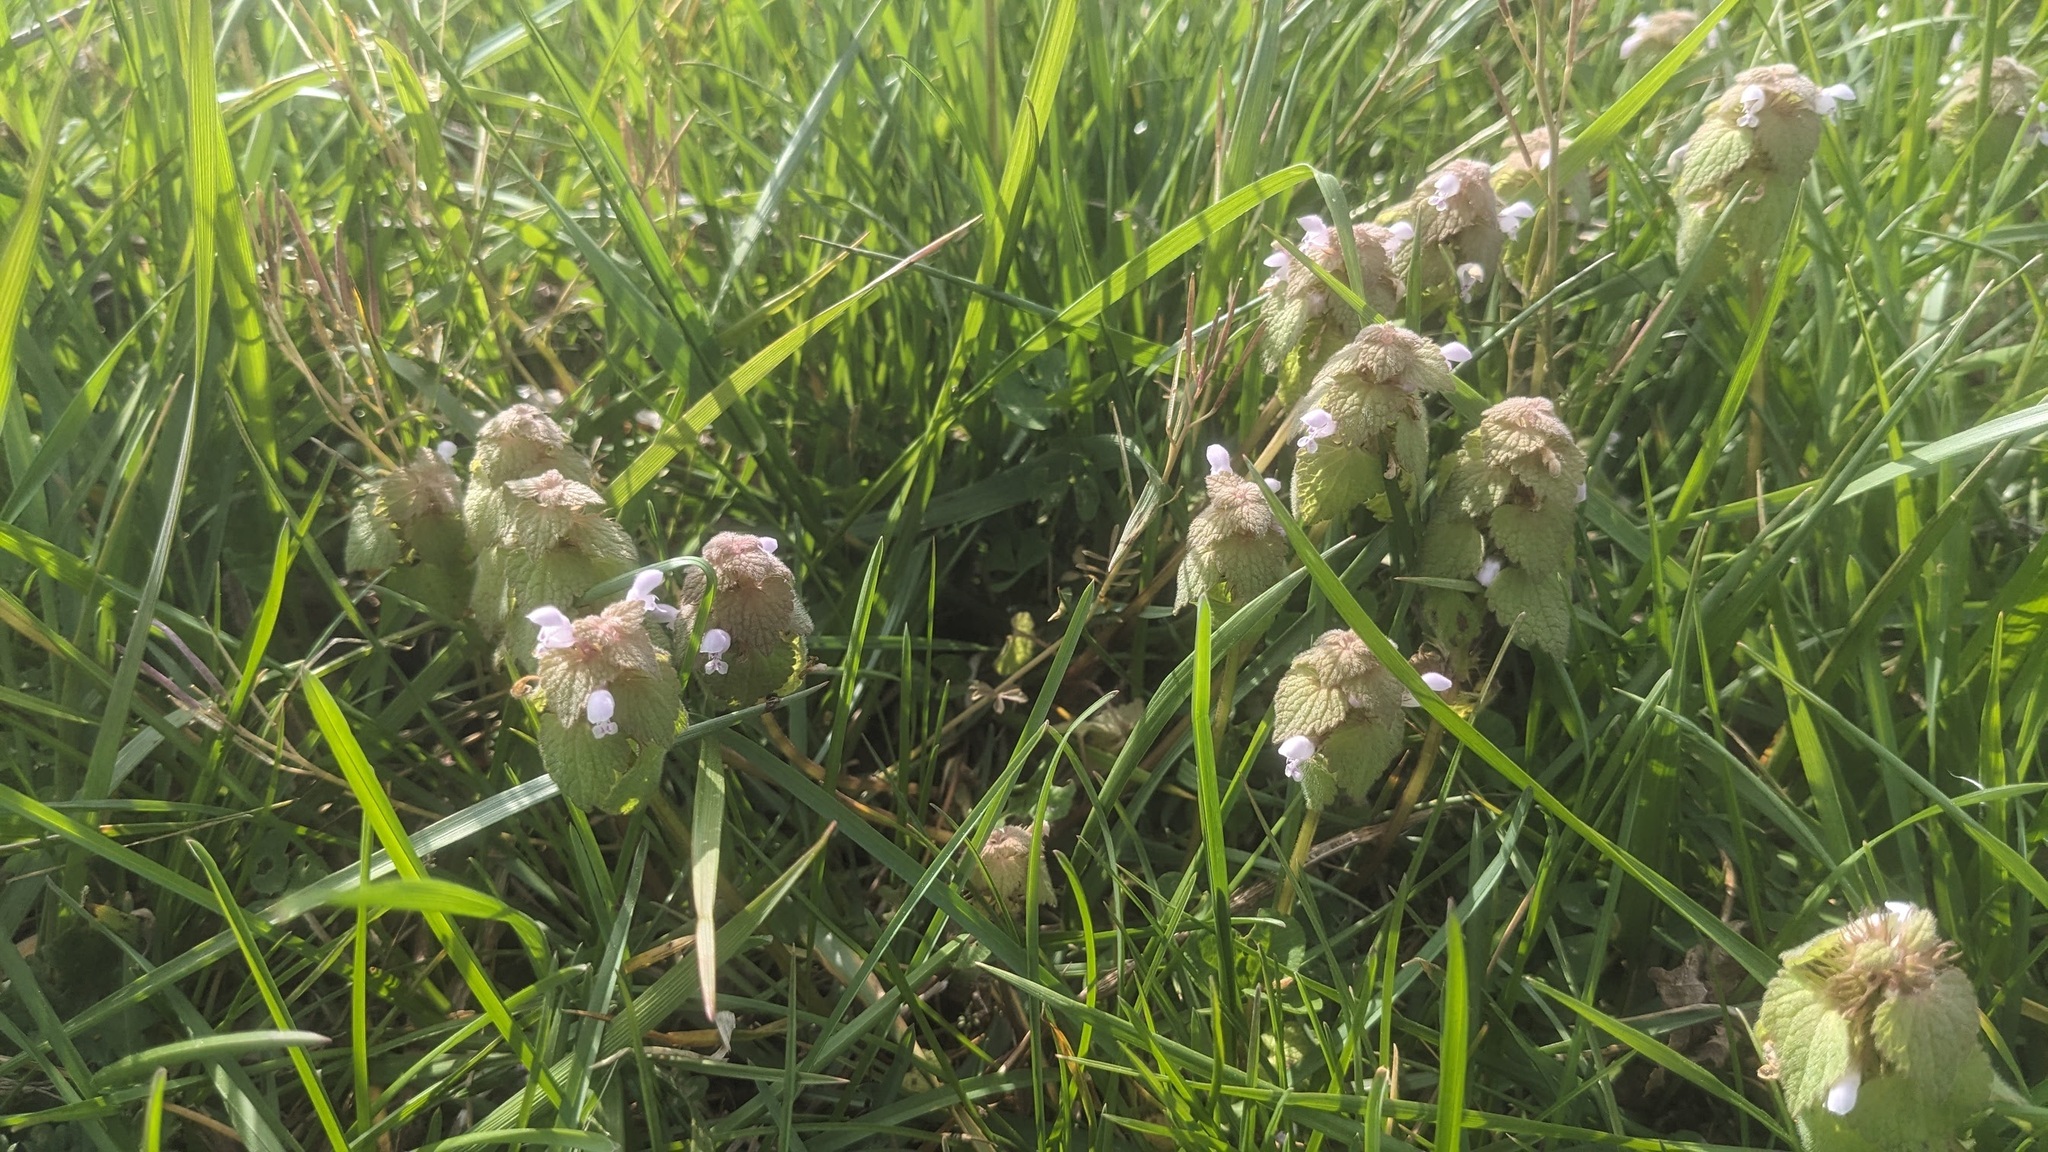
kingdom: Plantae
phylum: Tracheophyta
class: Magnoliopsida
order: Lamiales
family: Lamiaceae
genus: Lamium
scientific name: Lamium purpureum
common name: Red dead-nettle
